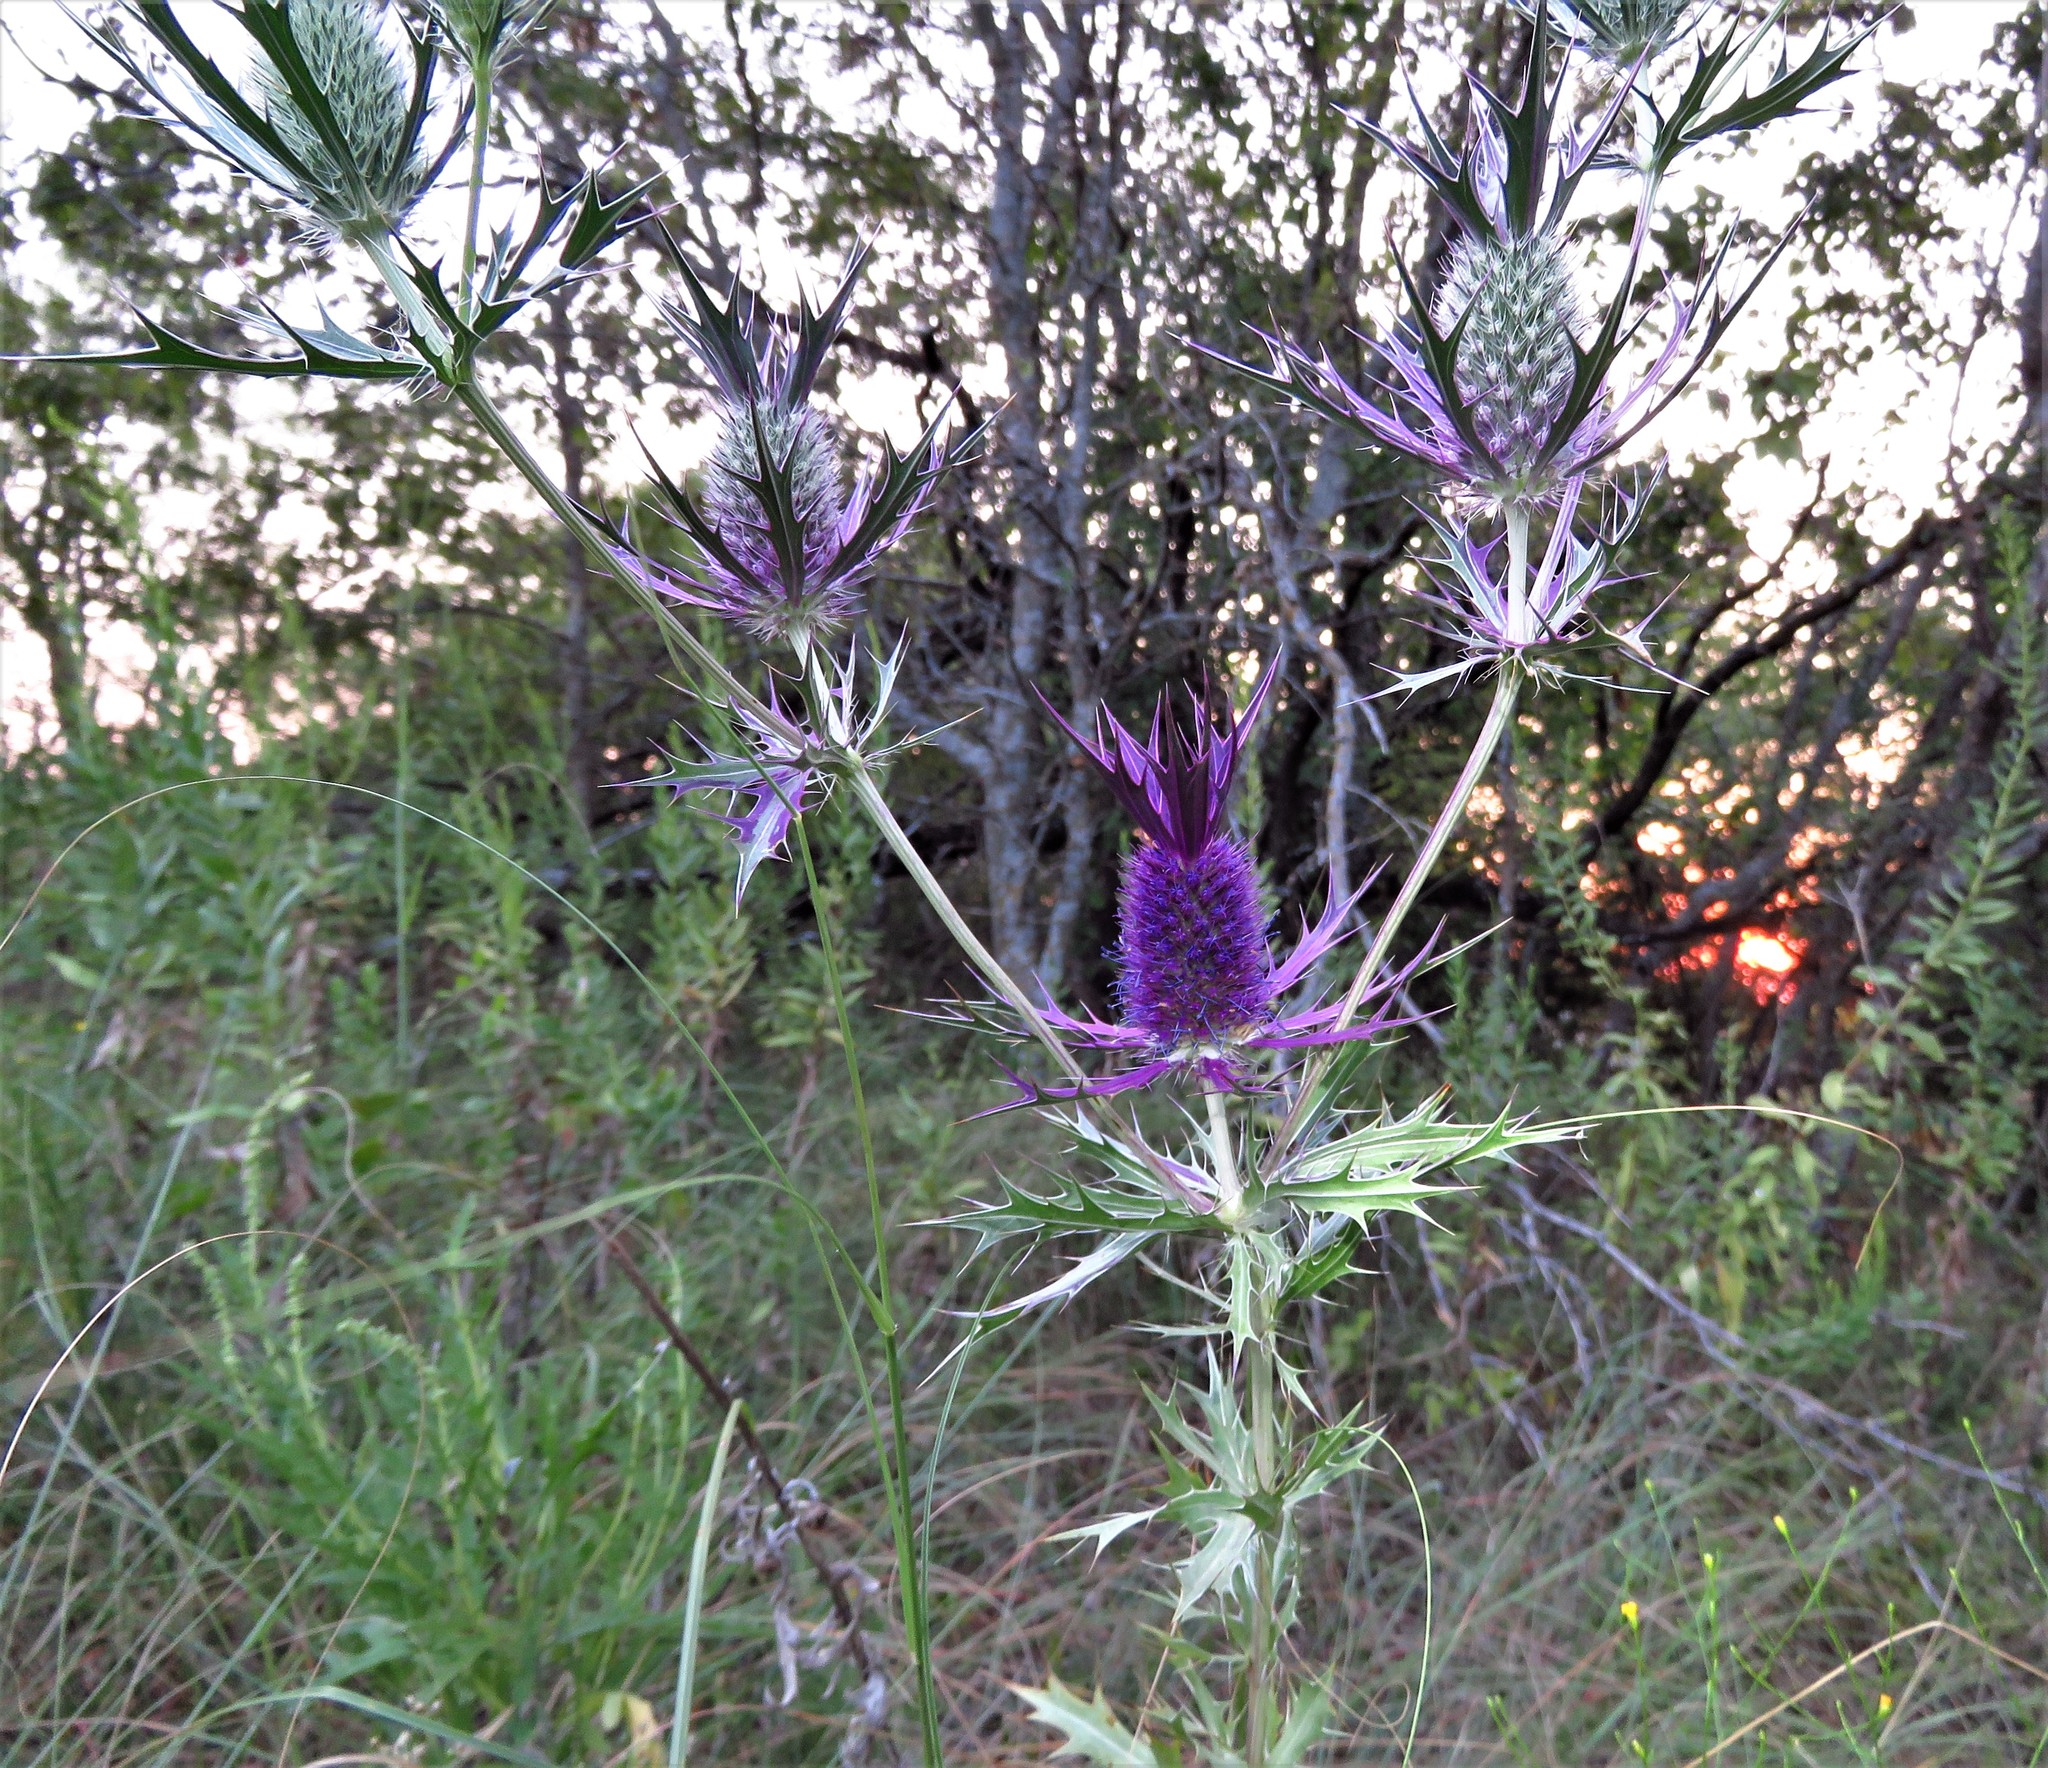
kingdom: Plantae
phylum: Tracheophyta
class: Magnoliopsida
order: Apiales
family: Apiaceae
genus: Eryngium
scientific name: Eryngium leavenworthii
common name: Leavenworth's eryngo
